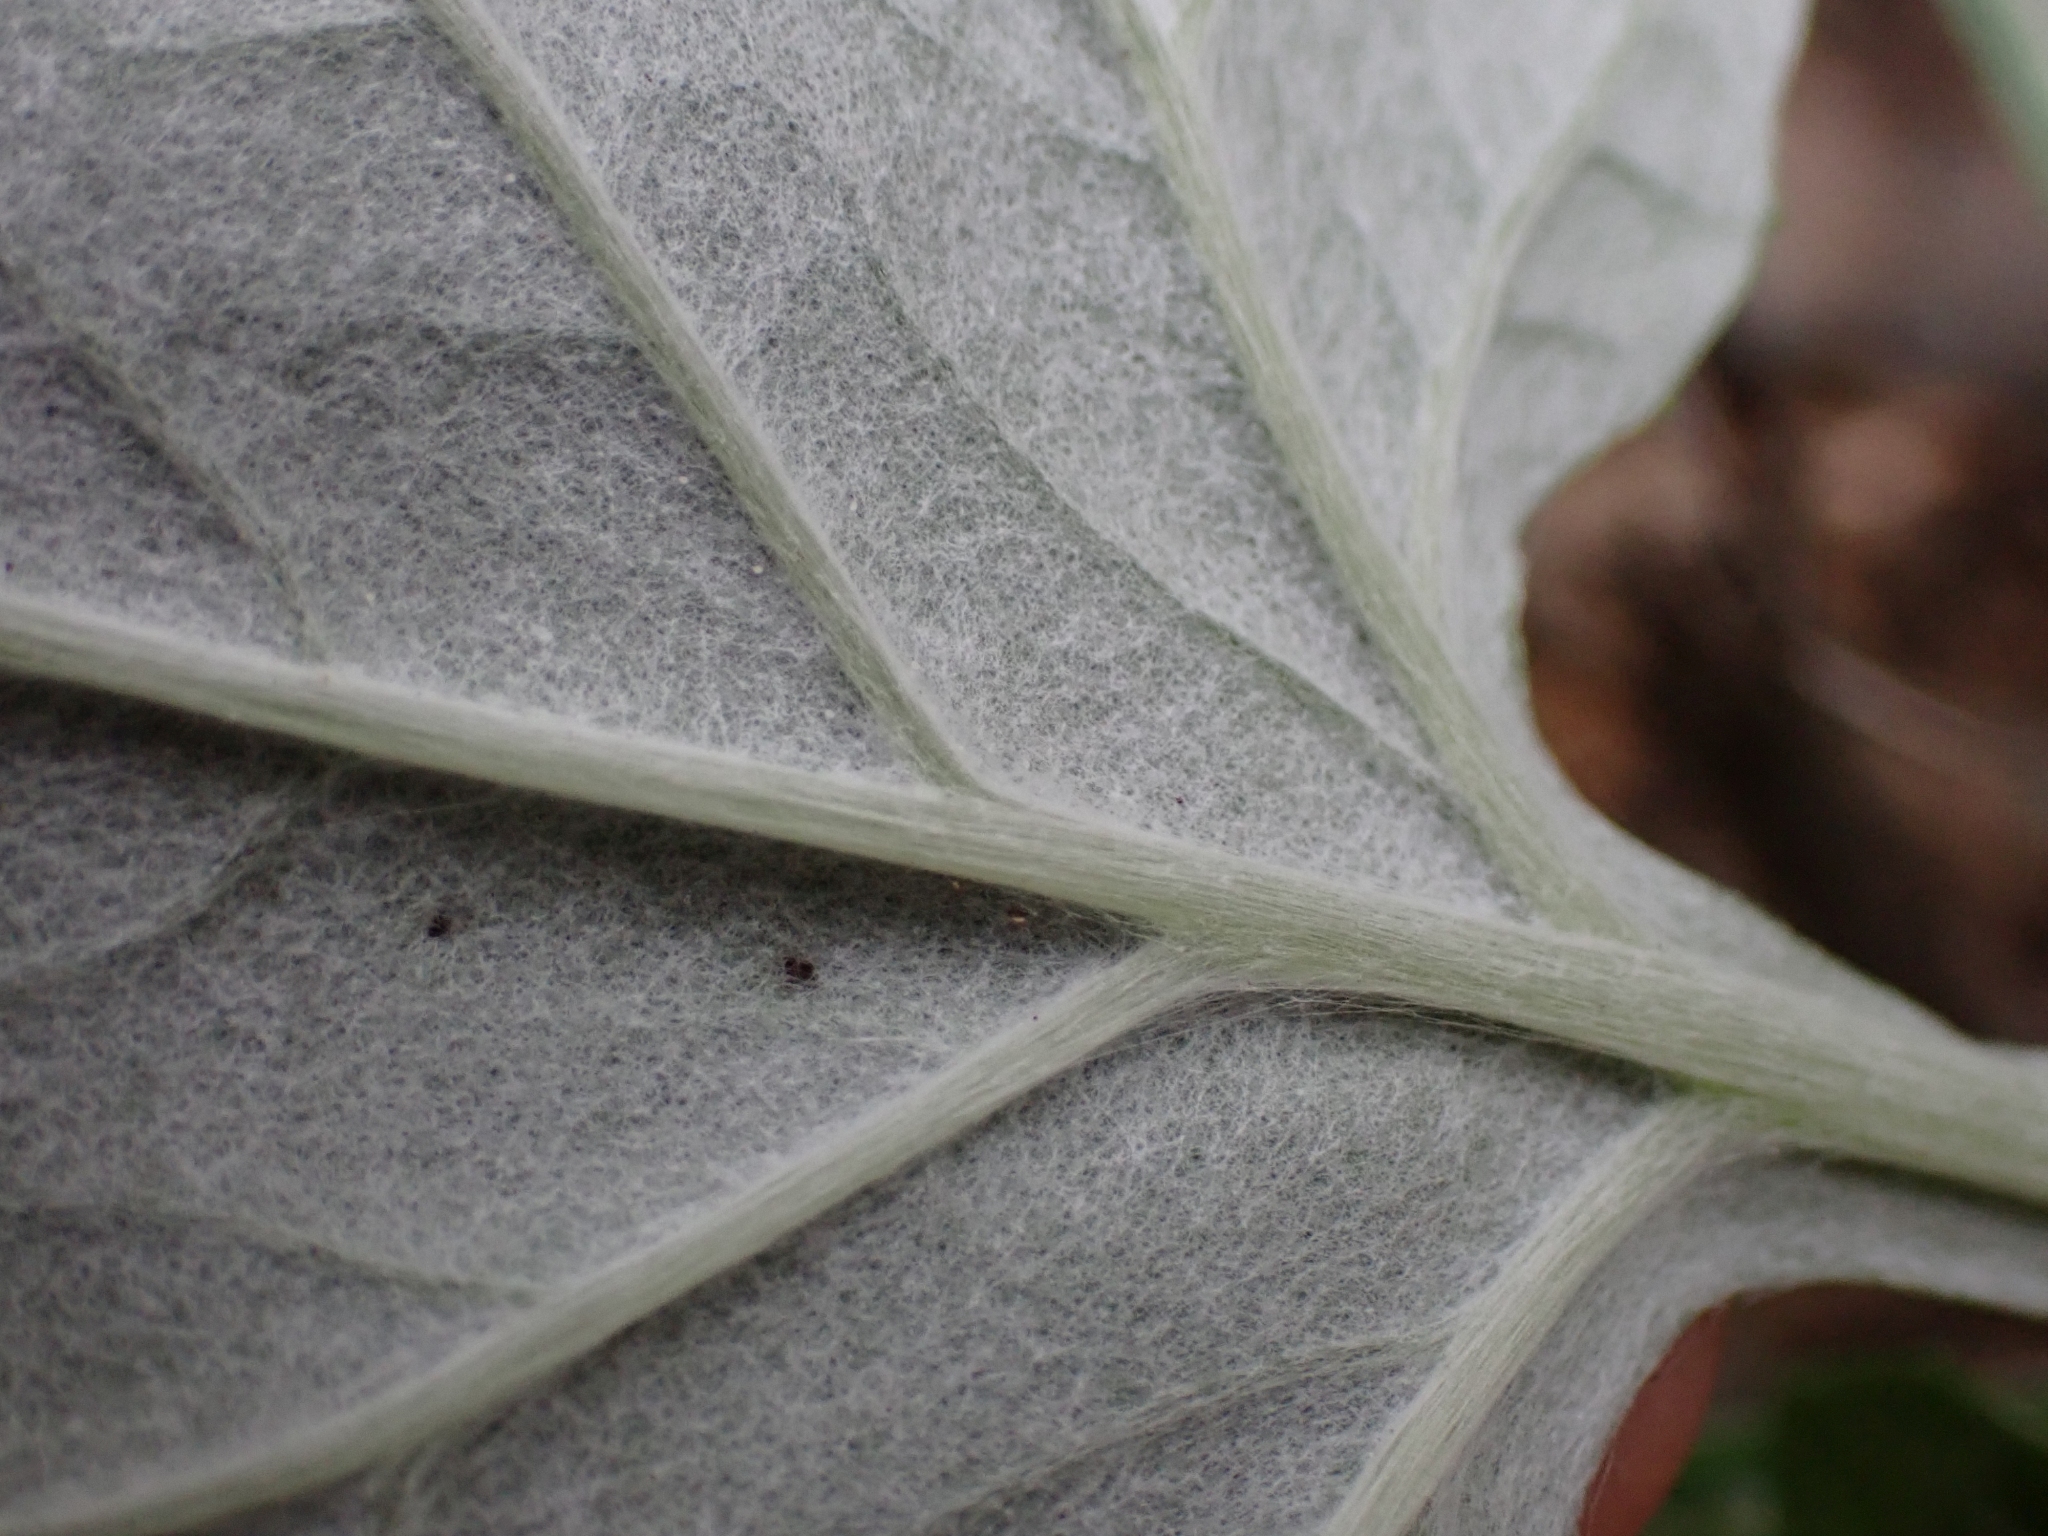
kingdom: Plantae
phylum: Tracheophyta
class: Magnoliopsida
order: Asterales
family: Asteraceae
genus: Adenocaulon
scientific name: Adenocaulon bicolor
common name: Trailplant
